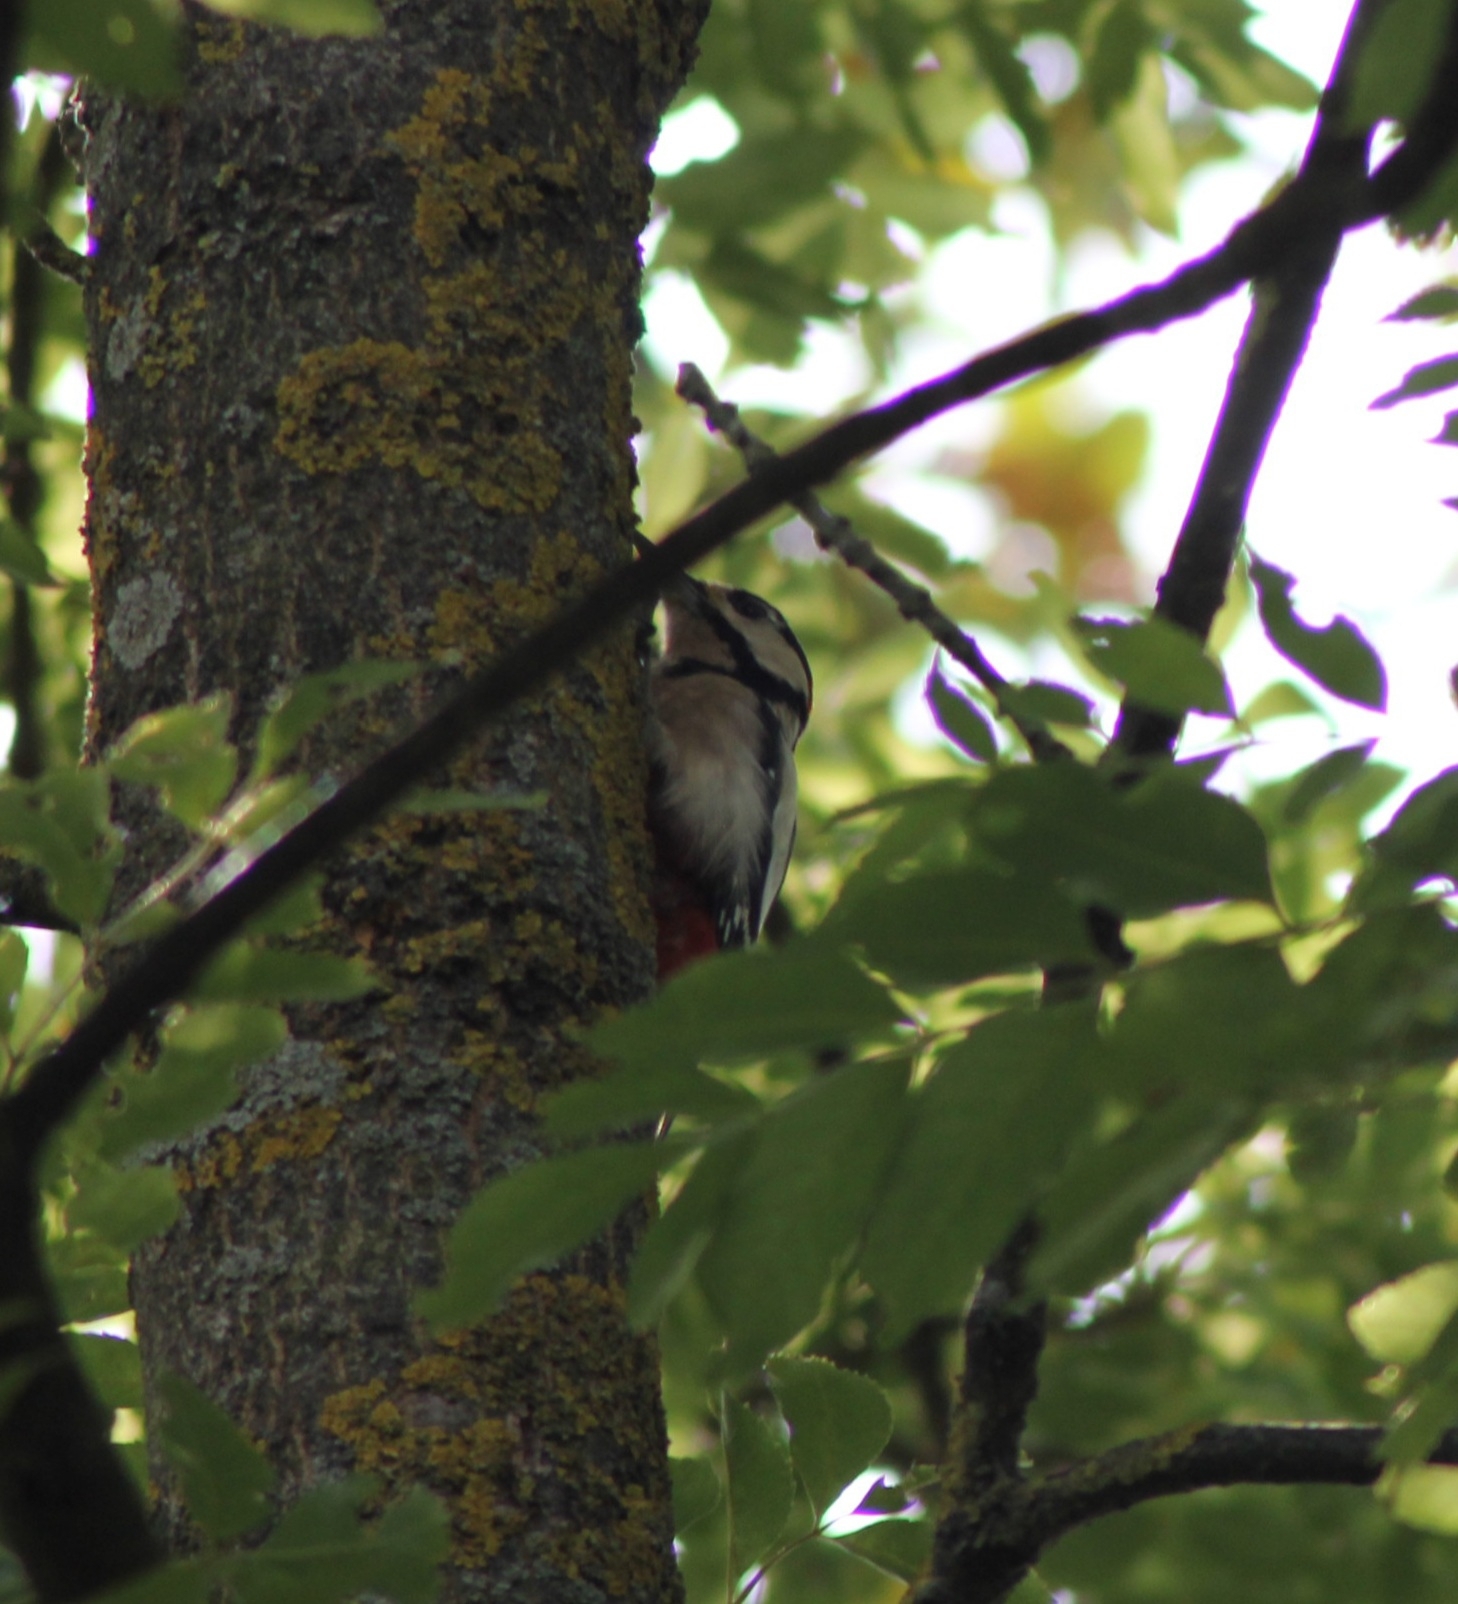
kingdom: Animalia
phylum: Chordata
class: Aves
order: Piciformes
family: Picidae
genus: Dendrocopos
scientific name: Dendrocopos major
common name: Great spotted woodpecker
